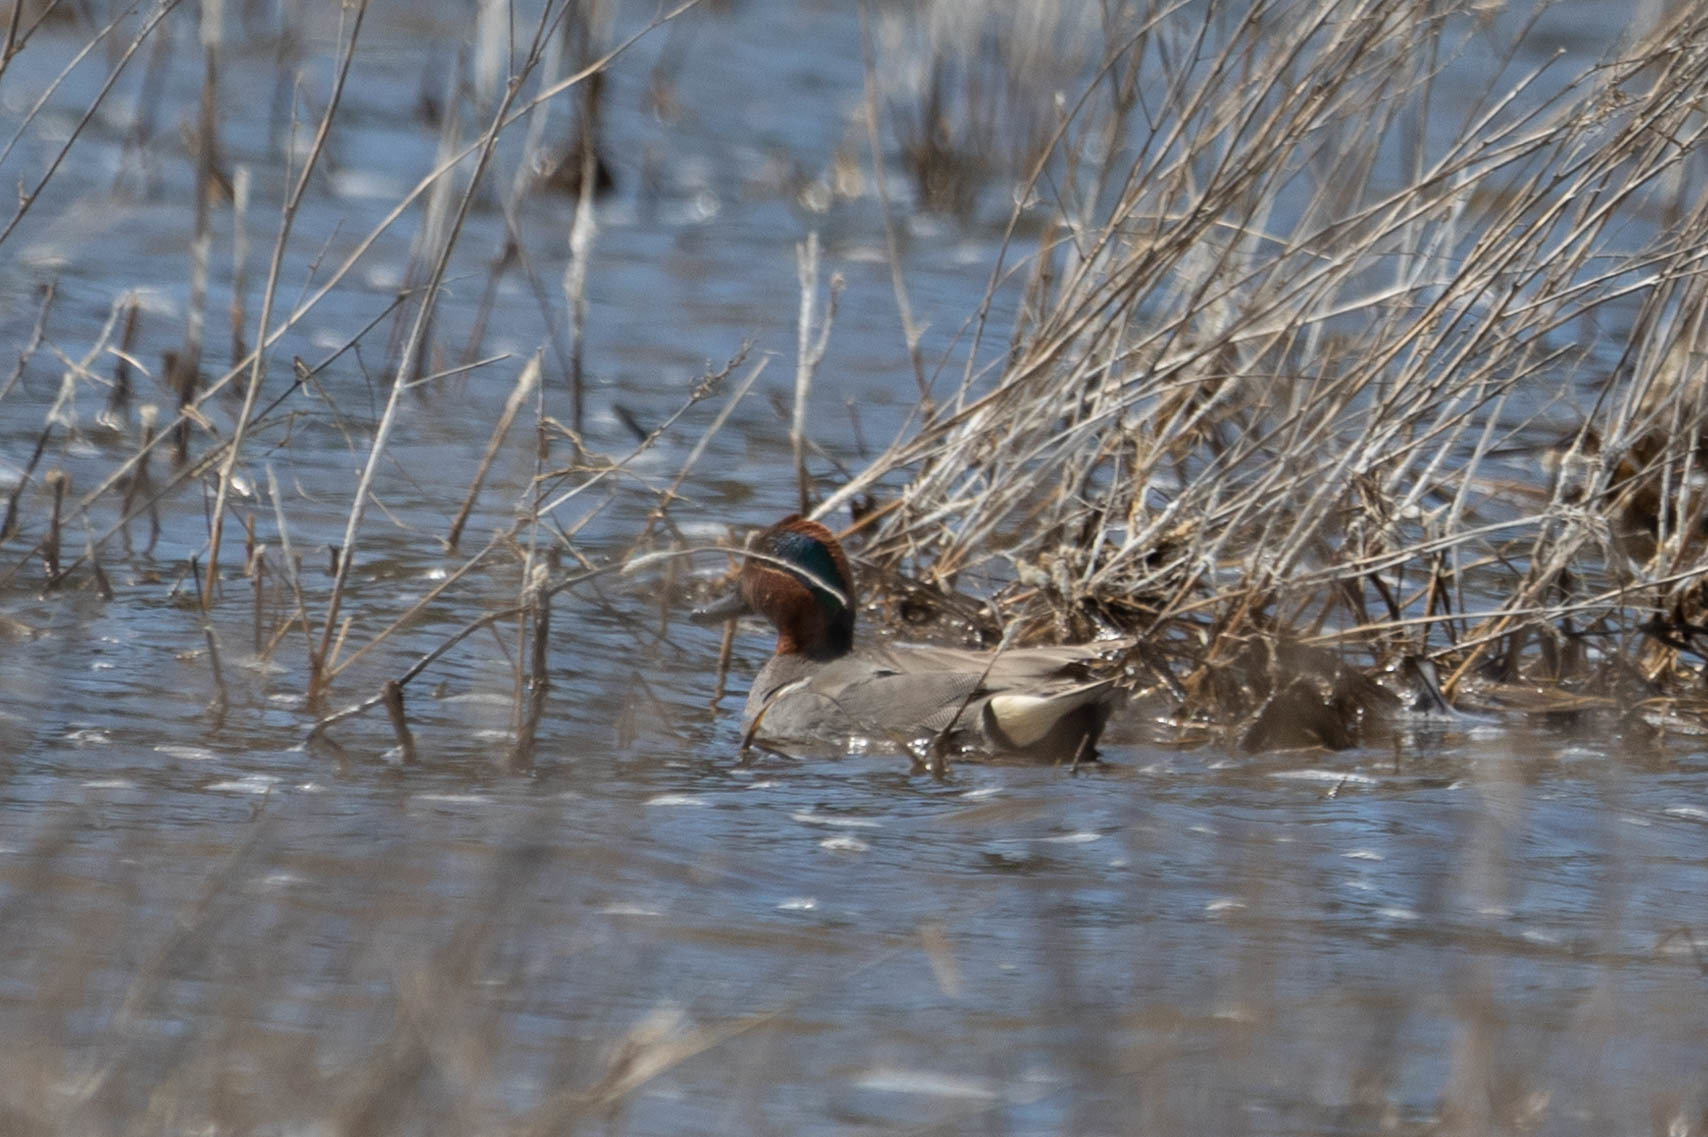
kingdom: Animalia
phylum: Chordata
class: Aves
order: Anseriformes
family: Anatidae
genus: Anas
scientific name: Anas crecca
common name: Eurasian teal
